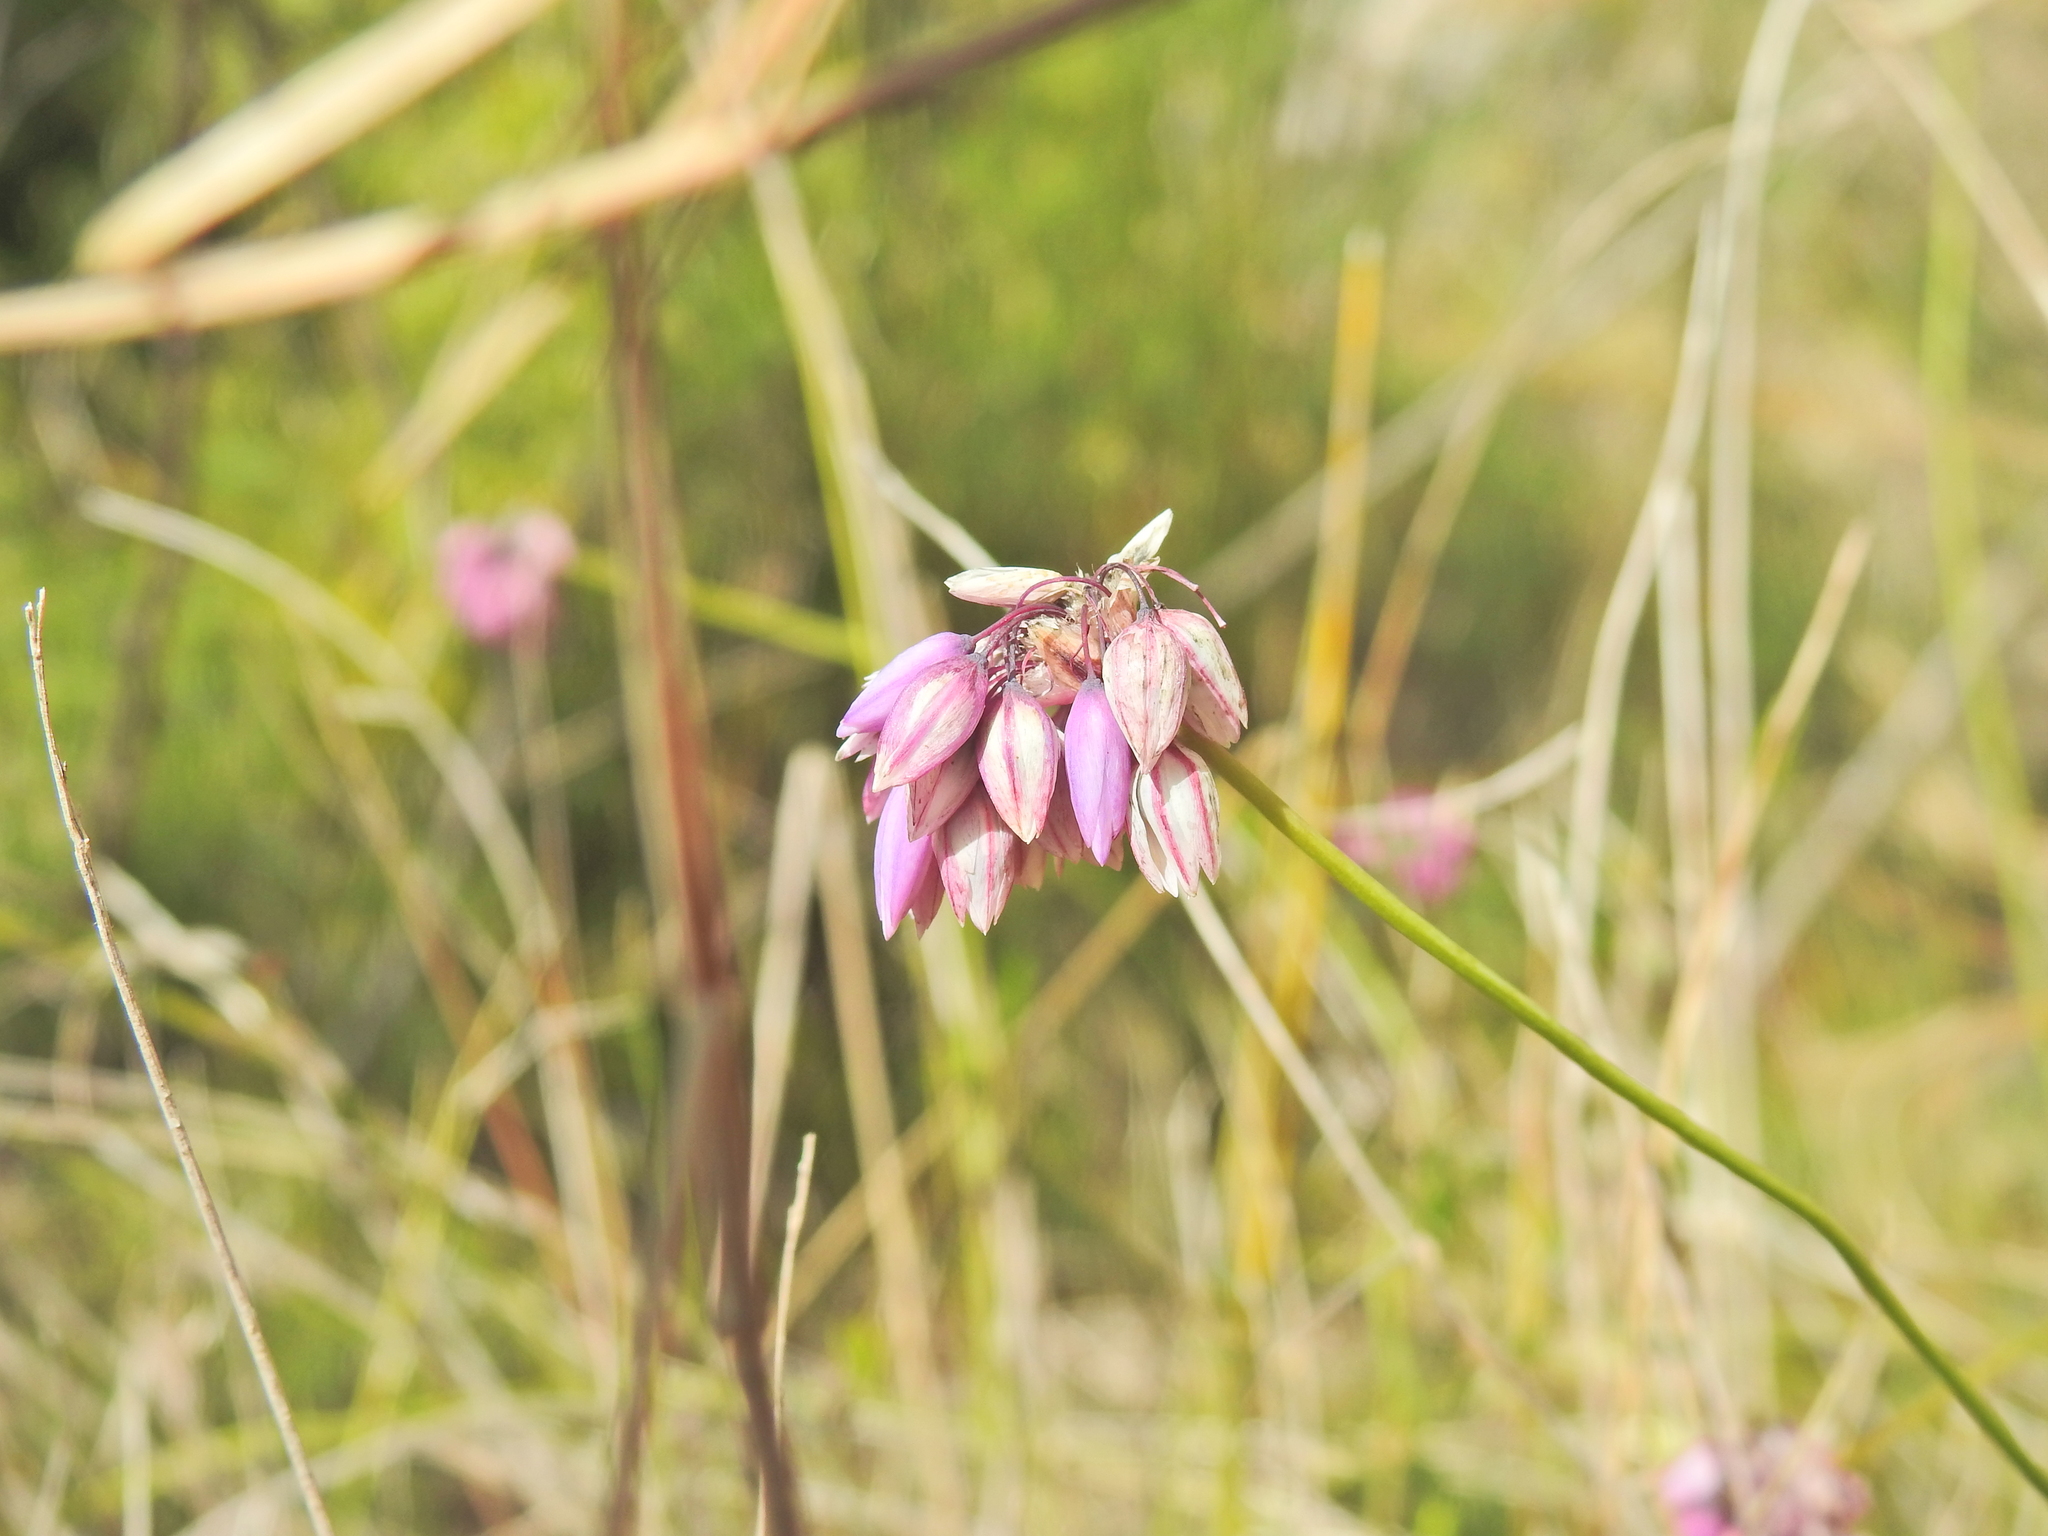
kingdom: Plantae
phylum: Tracheophyta
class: Liliopsida
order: Asparagales
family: Asparagaceae
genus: Sowerbaea
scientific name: Sowerbaea juncea
